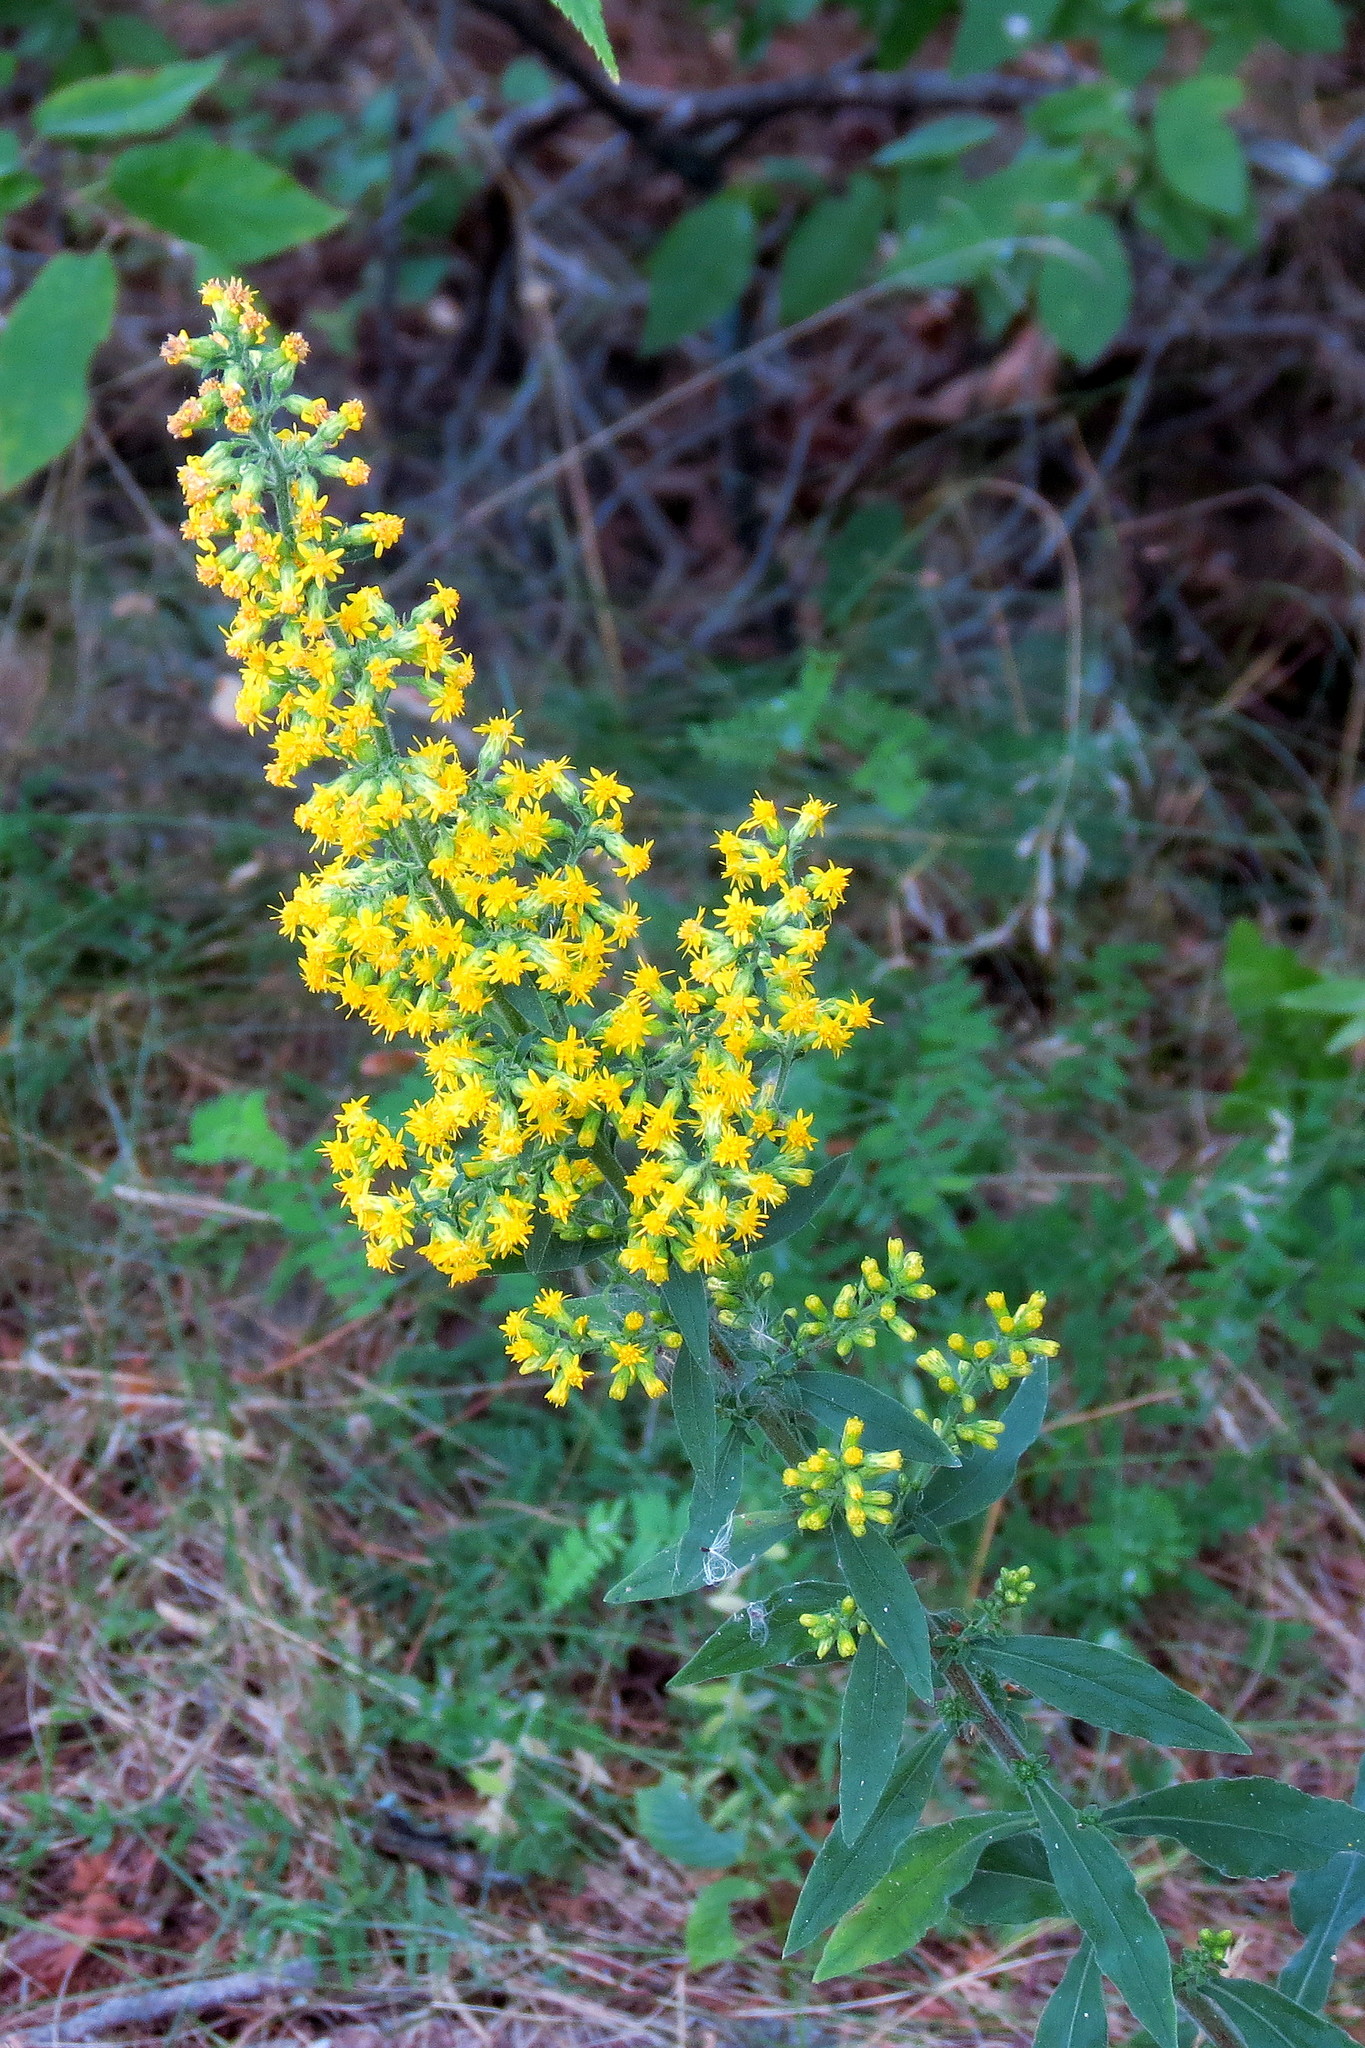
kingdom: Plantae
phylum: Tracheophyta
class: Magnoliopsida
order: Asterales
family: Asteraceae
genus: Solidago
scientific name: Solidago hispida
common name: Hairy goldenrod
